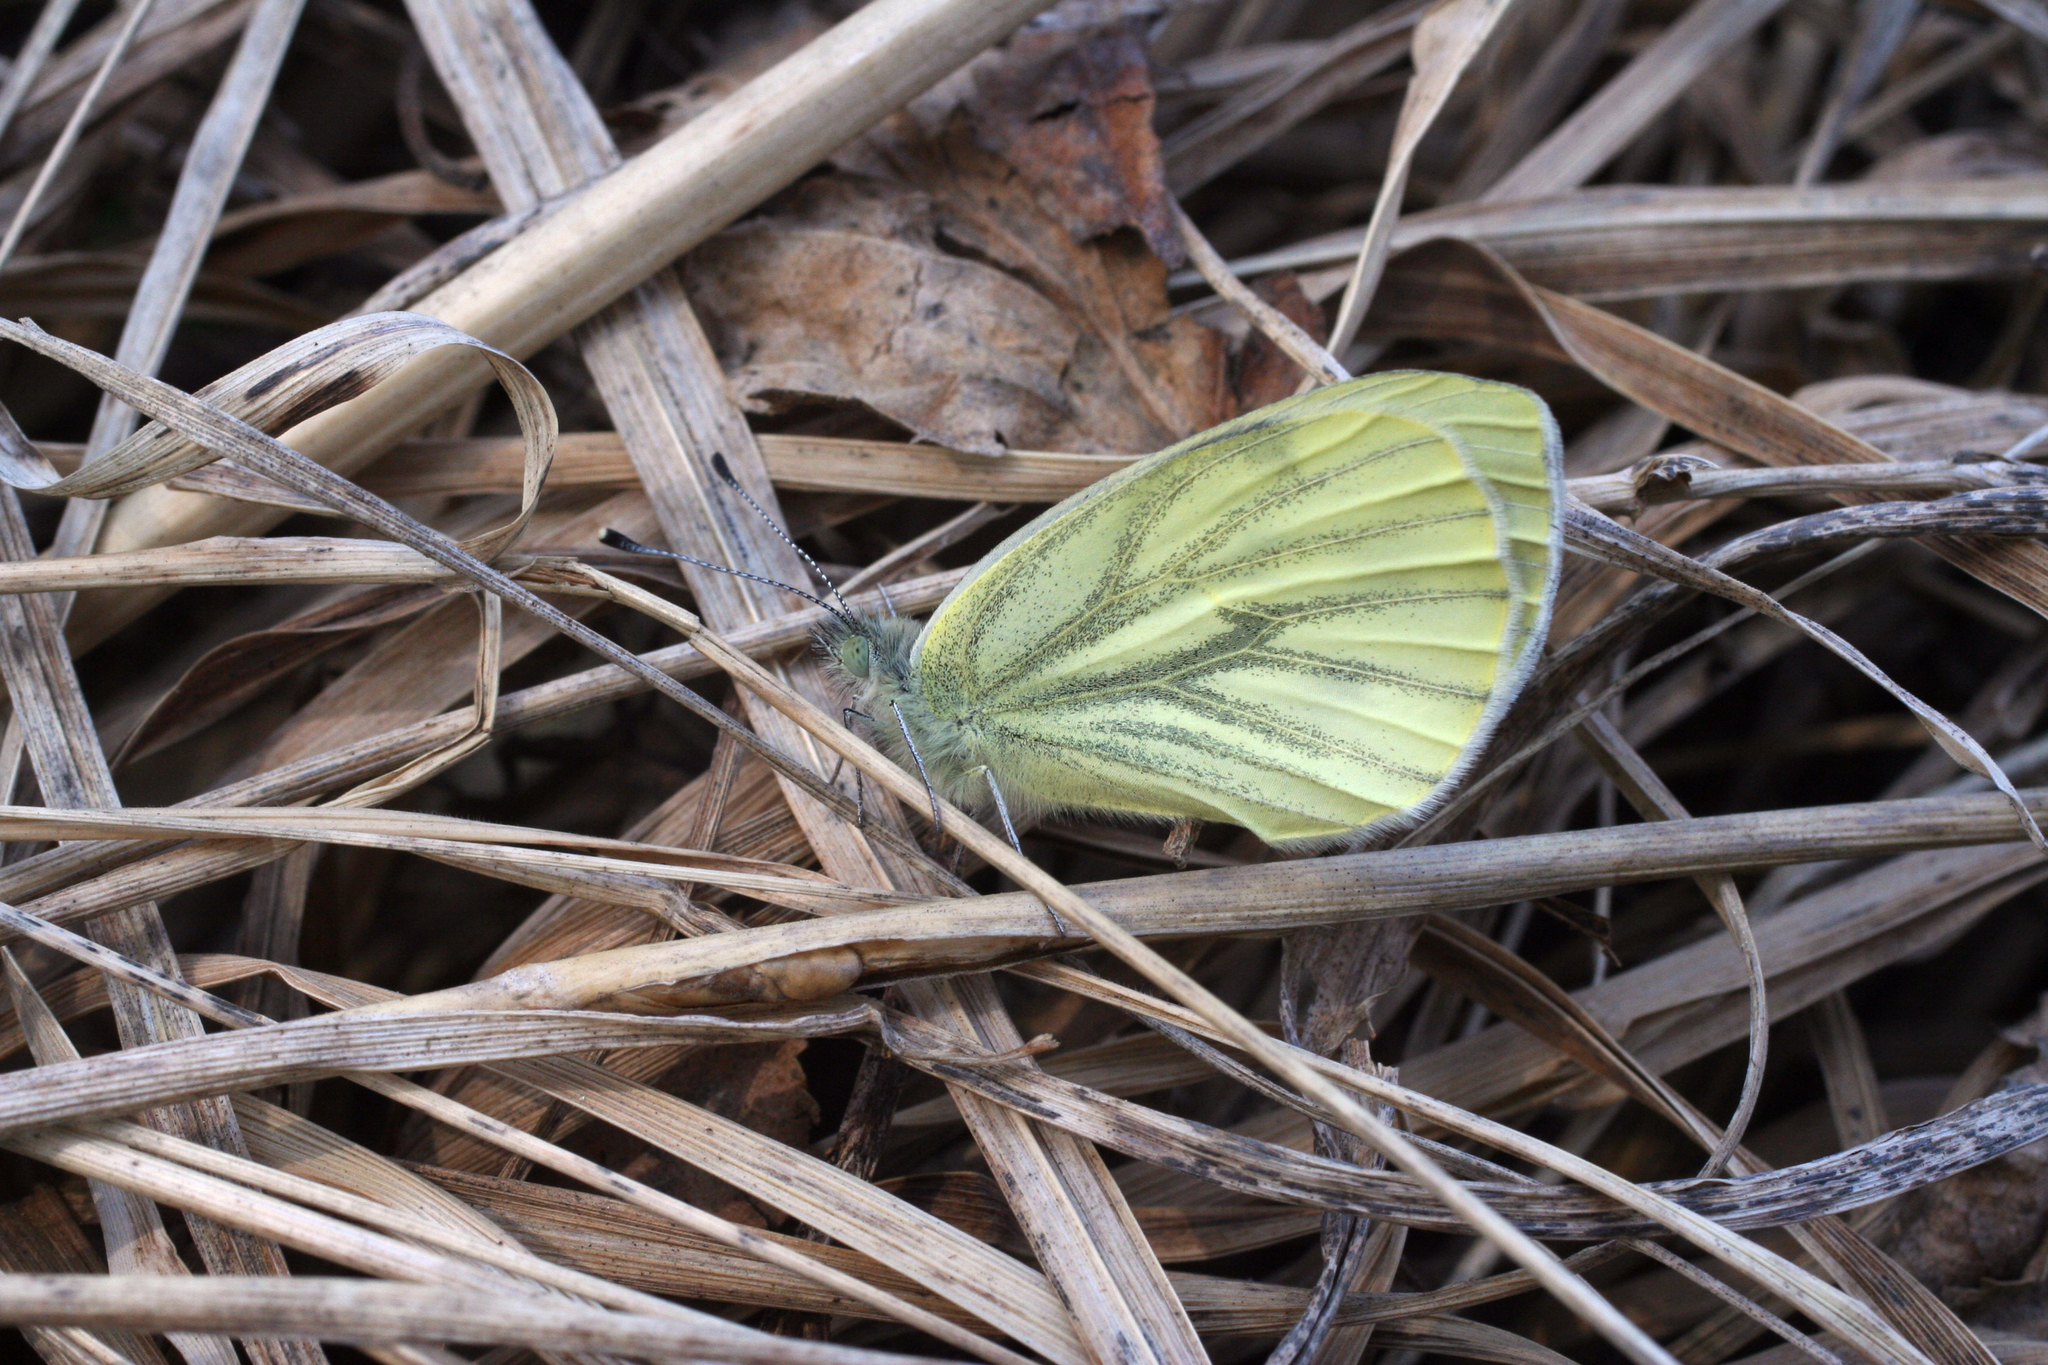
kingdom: Animalia
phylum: Arthropoda
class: Insecta
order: Lepidoptera
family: Pieridae
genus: Pieris
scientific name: Pieris napi
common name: Green-veined white
